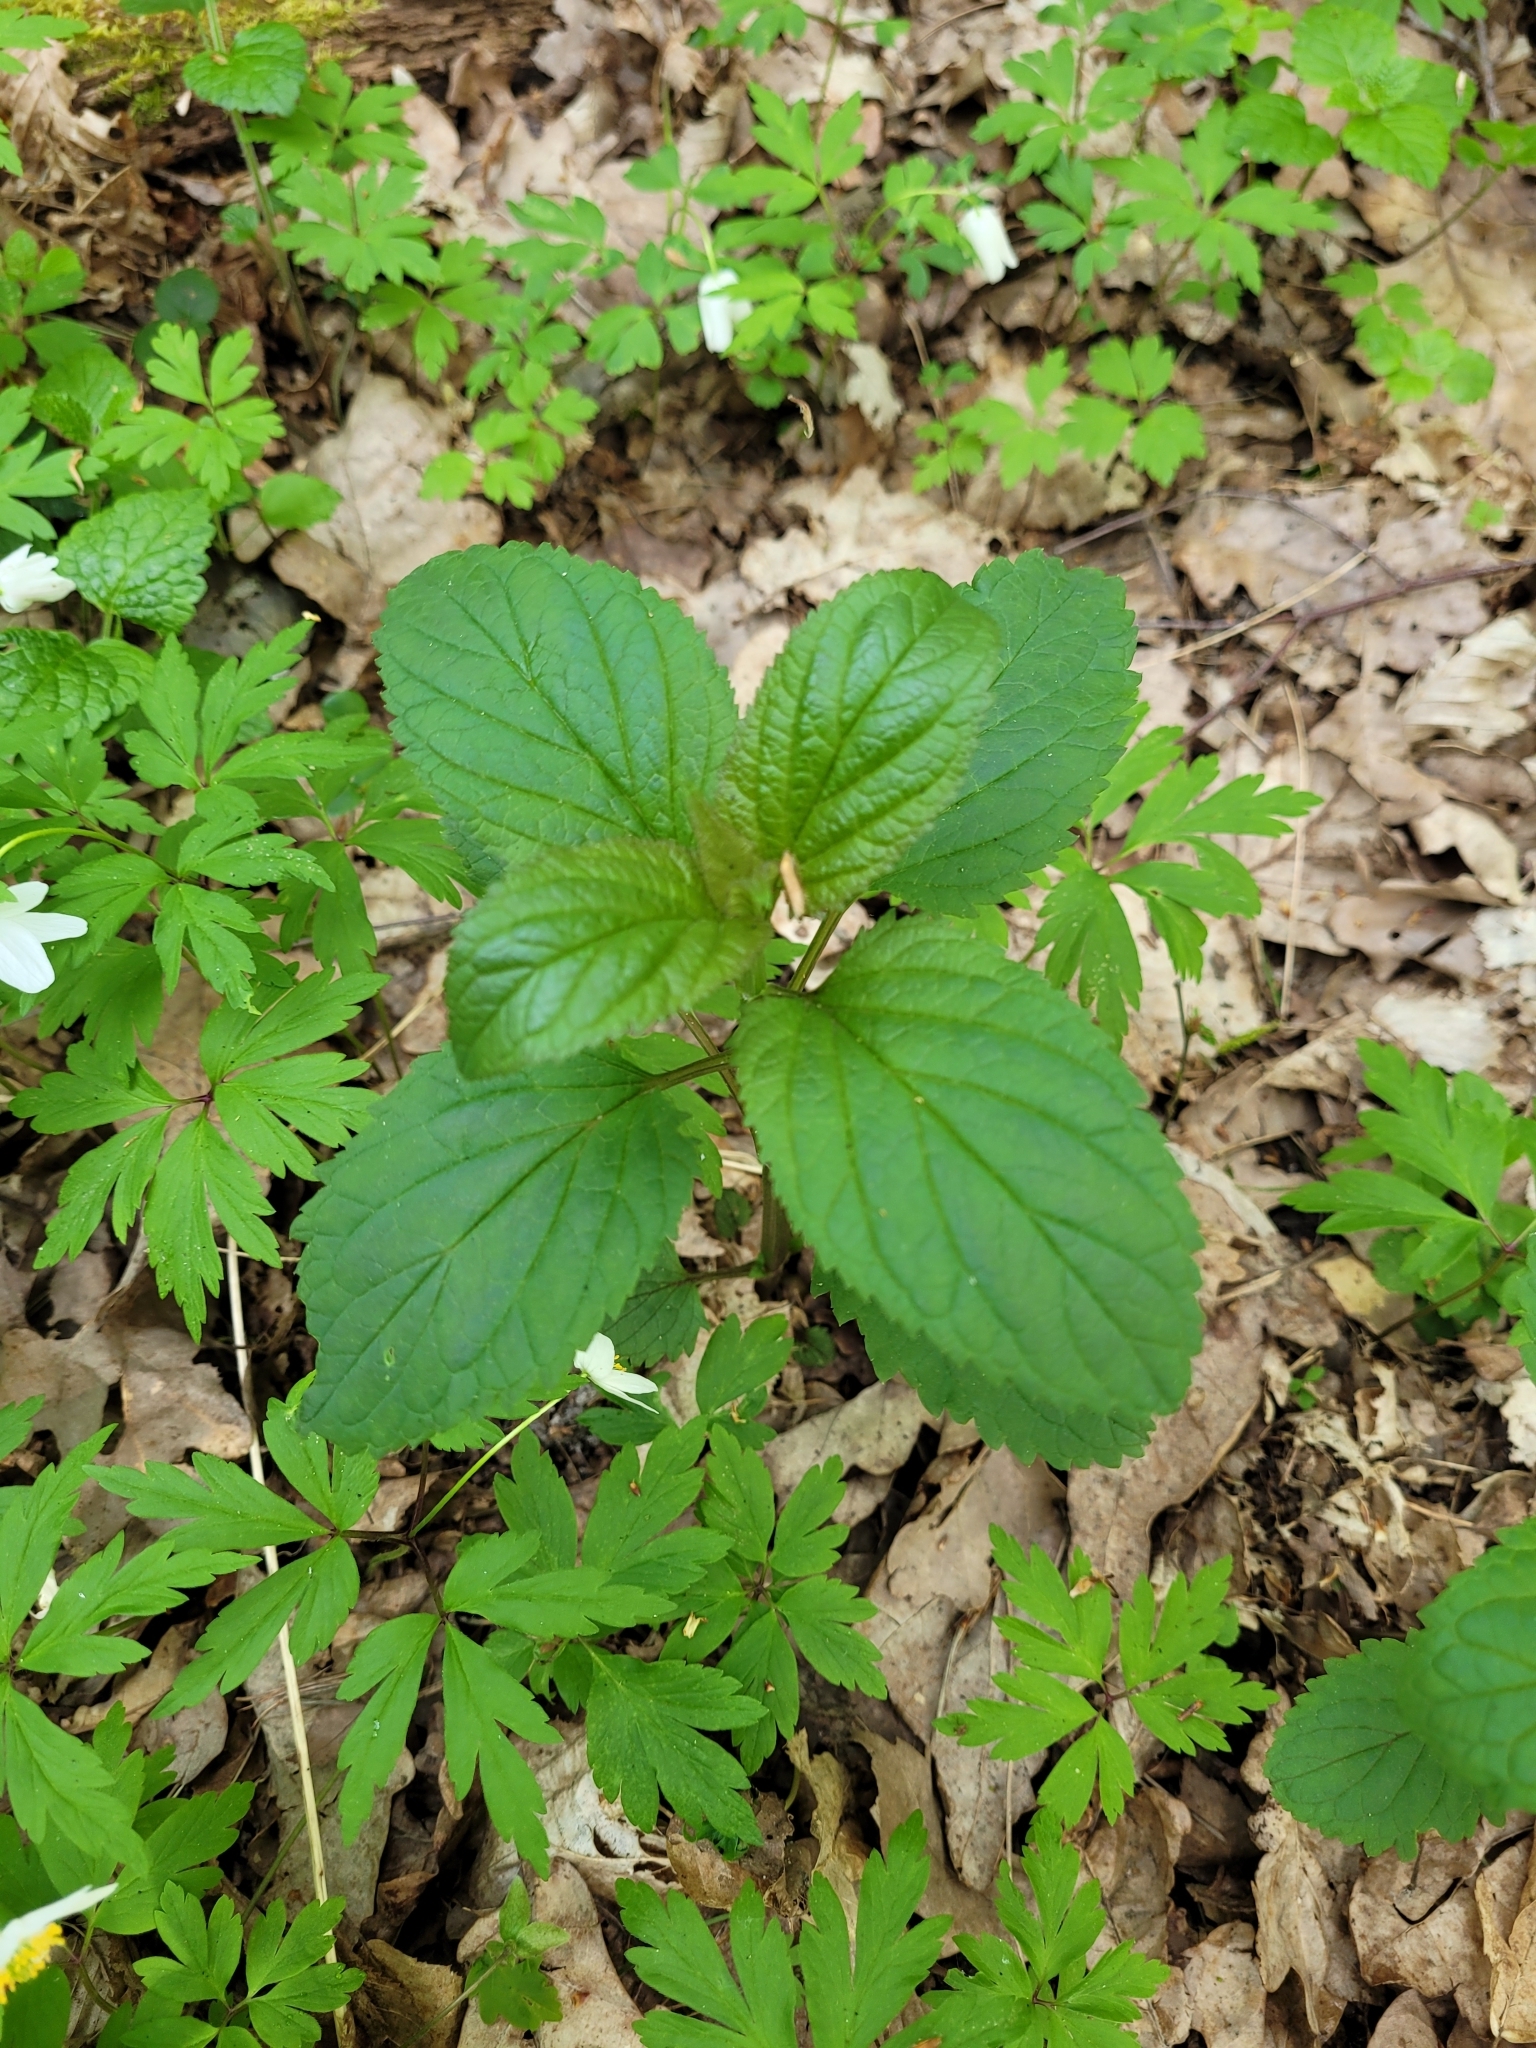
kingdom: Plantae
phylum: Tracheophyta
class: Magnoliopsida
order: Lamiales
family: Scrophulariaceae
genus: Scrophularia
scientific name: Scrophularia nodosa
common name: Common figwort
